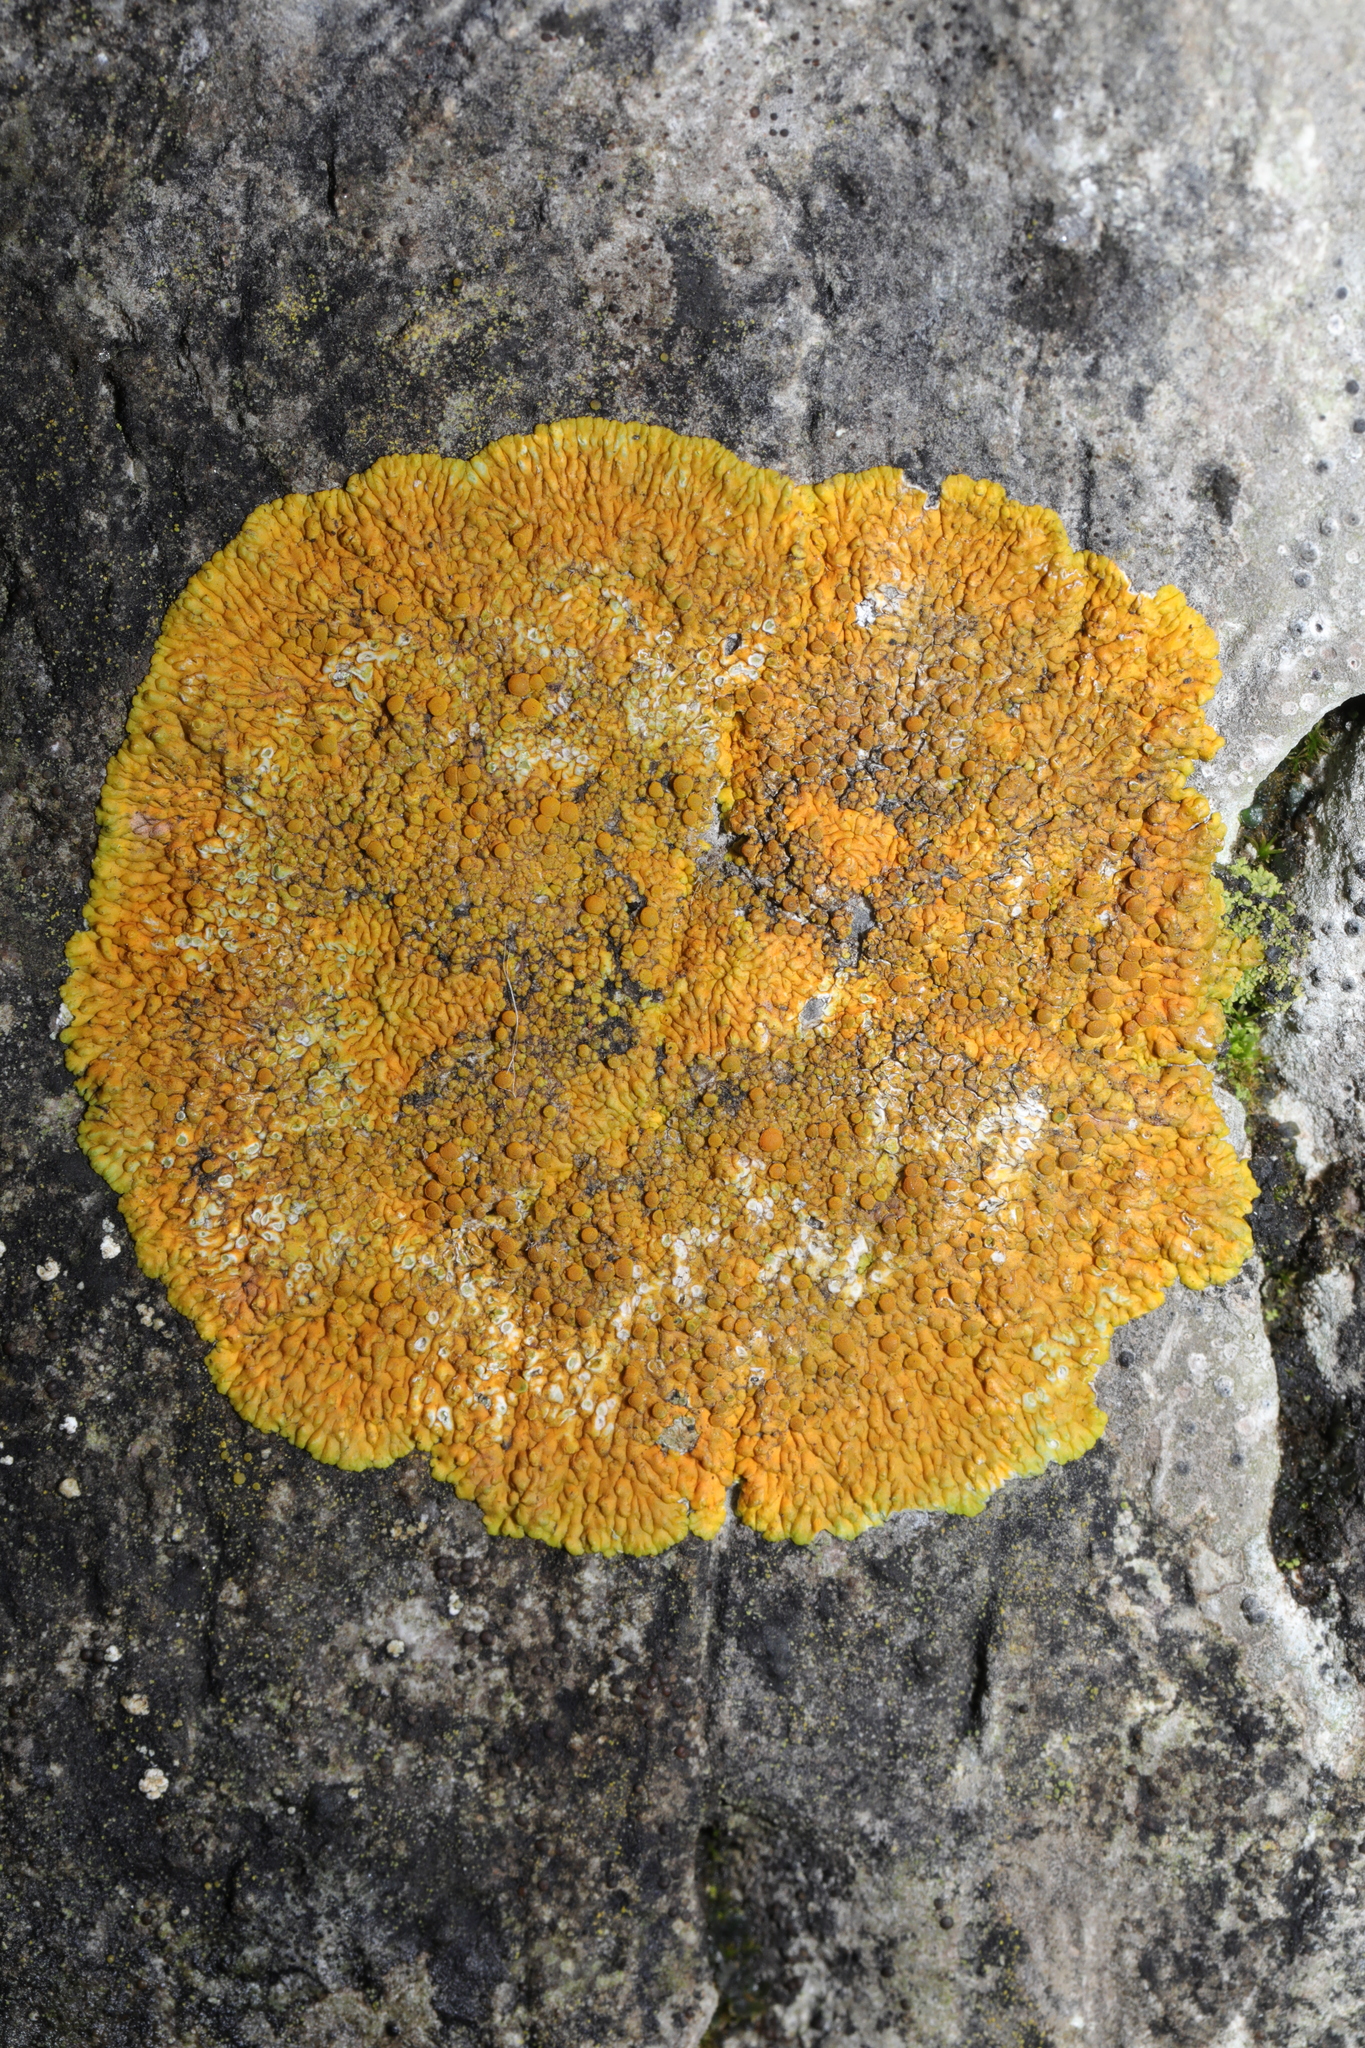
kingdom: Fungi
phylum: Ascomycota
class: Lecanoromycetes
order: Teloschistales
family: Teloschistaceae
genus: Variospora
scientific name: Variospora flavescens
